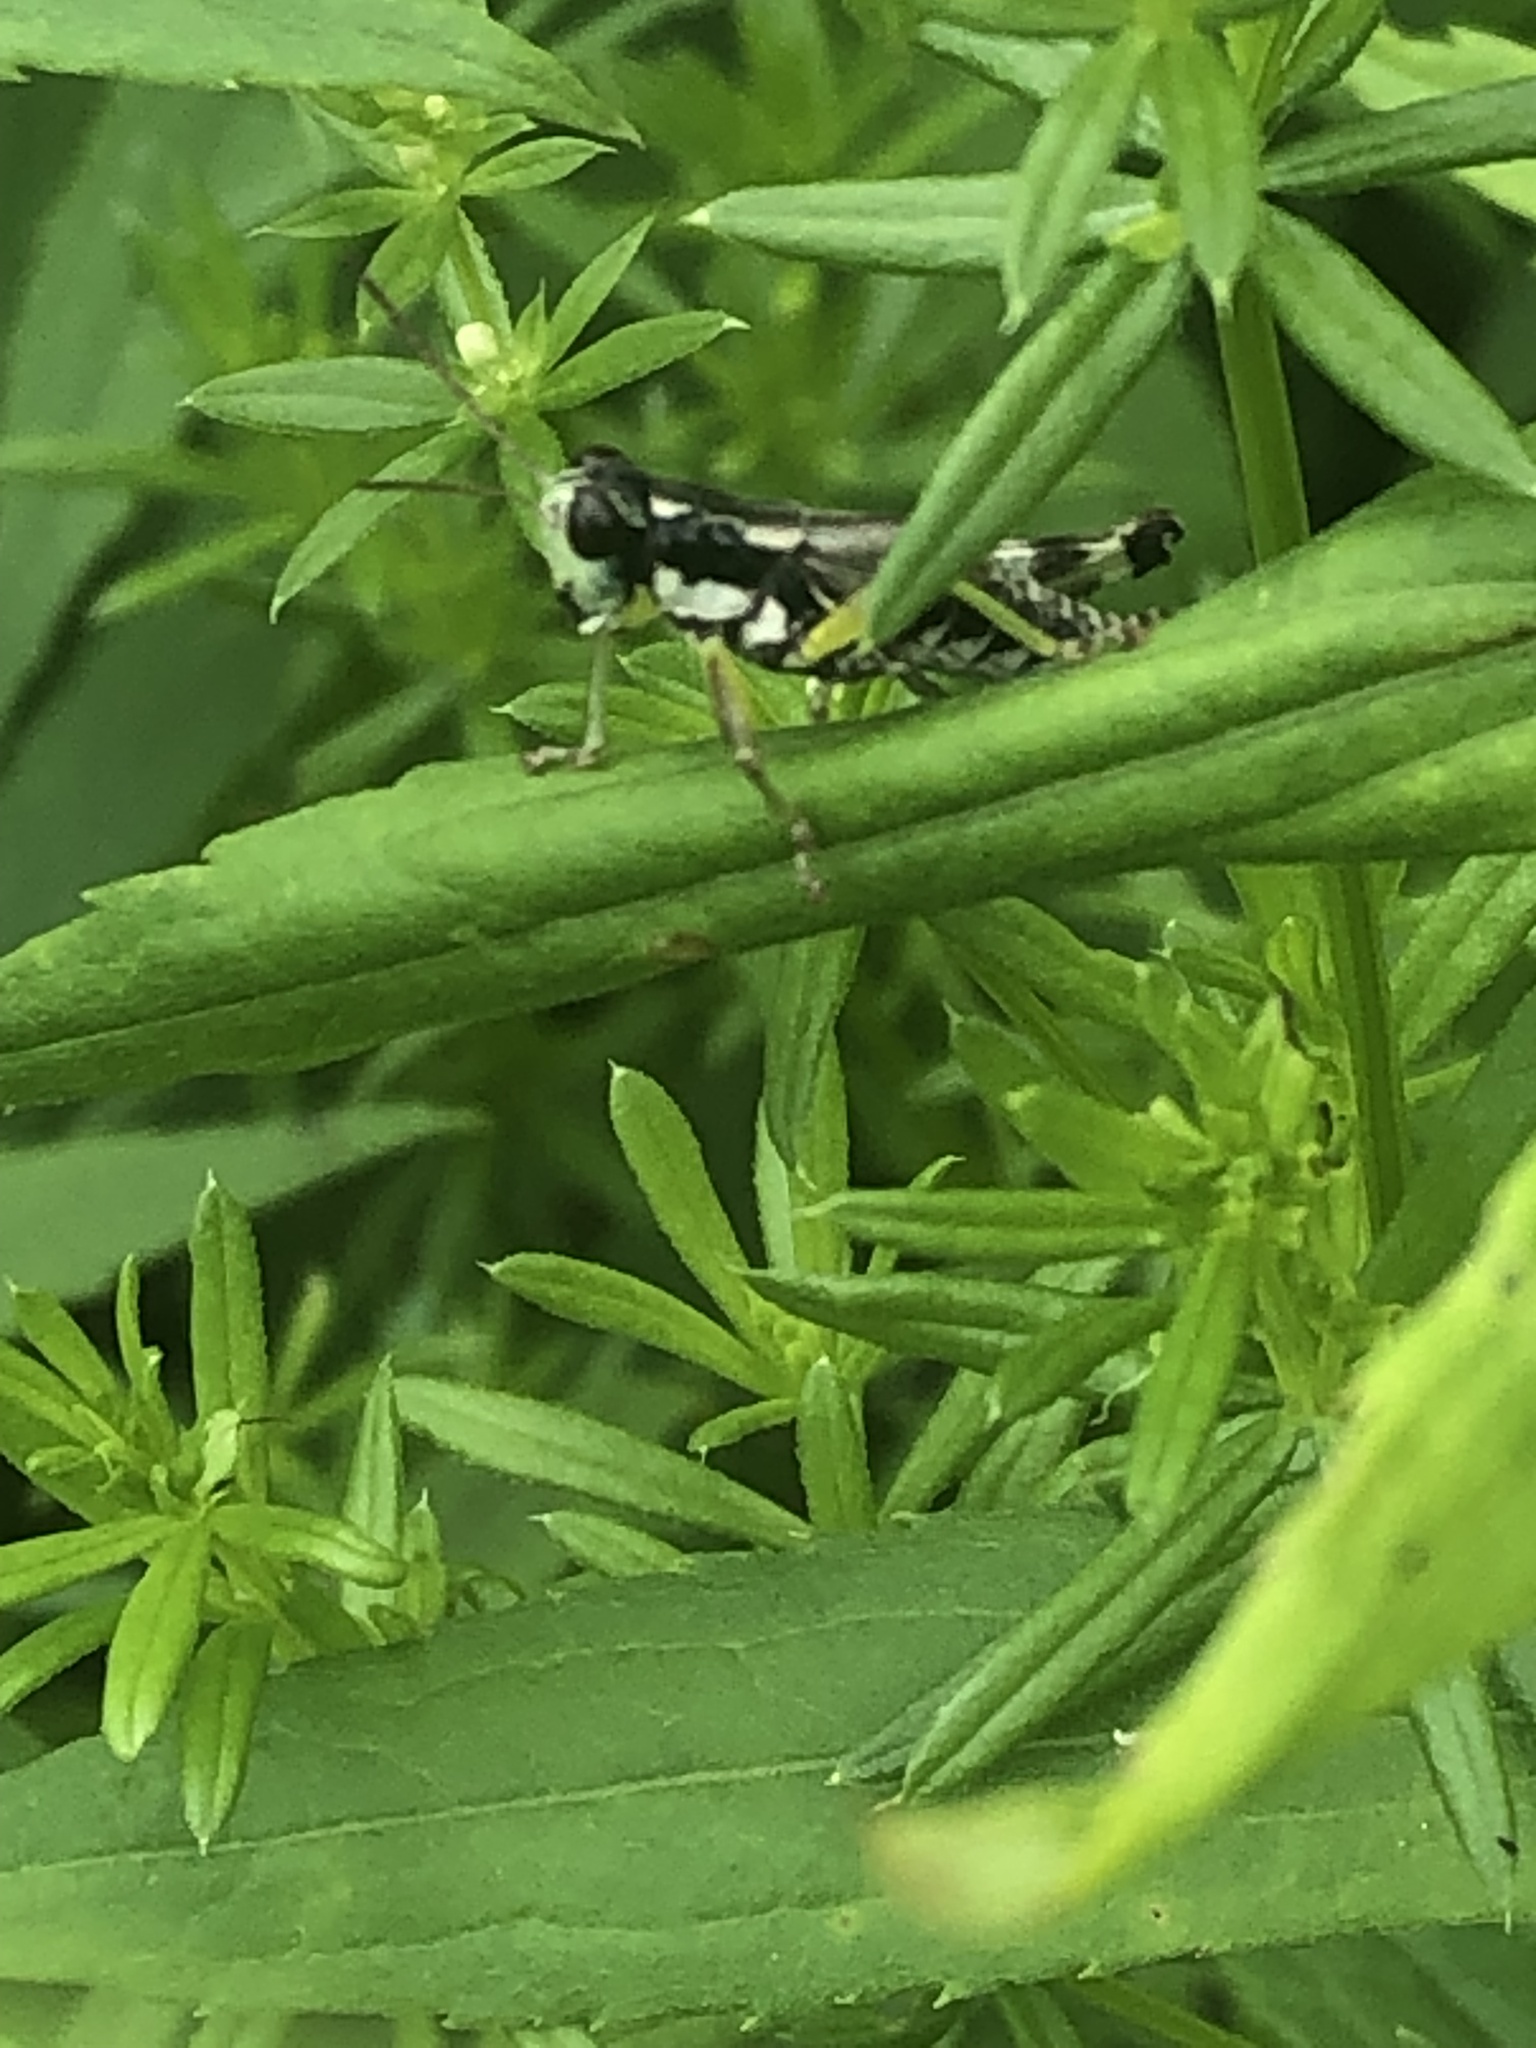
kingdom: Animalia
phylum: Arthropoda
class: Insecta
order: Orthoptera
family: Acrididae
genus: Melanoplus
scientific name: Melanoplus viridipes
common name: Green-legged locust
